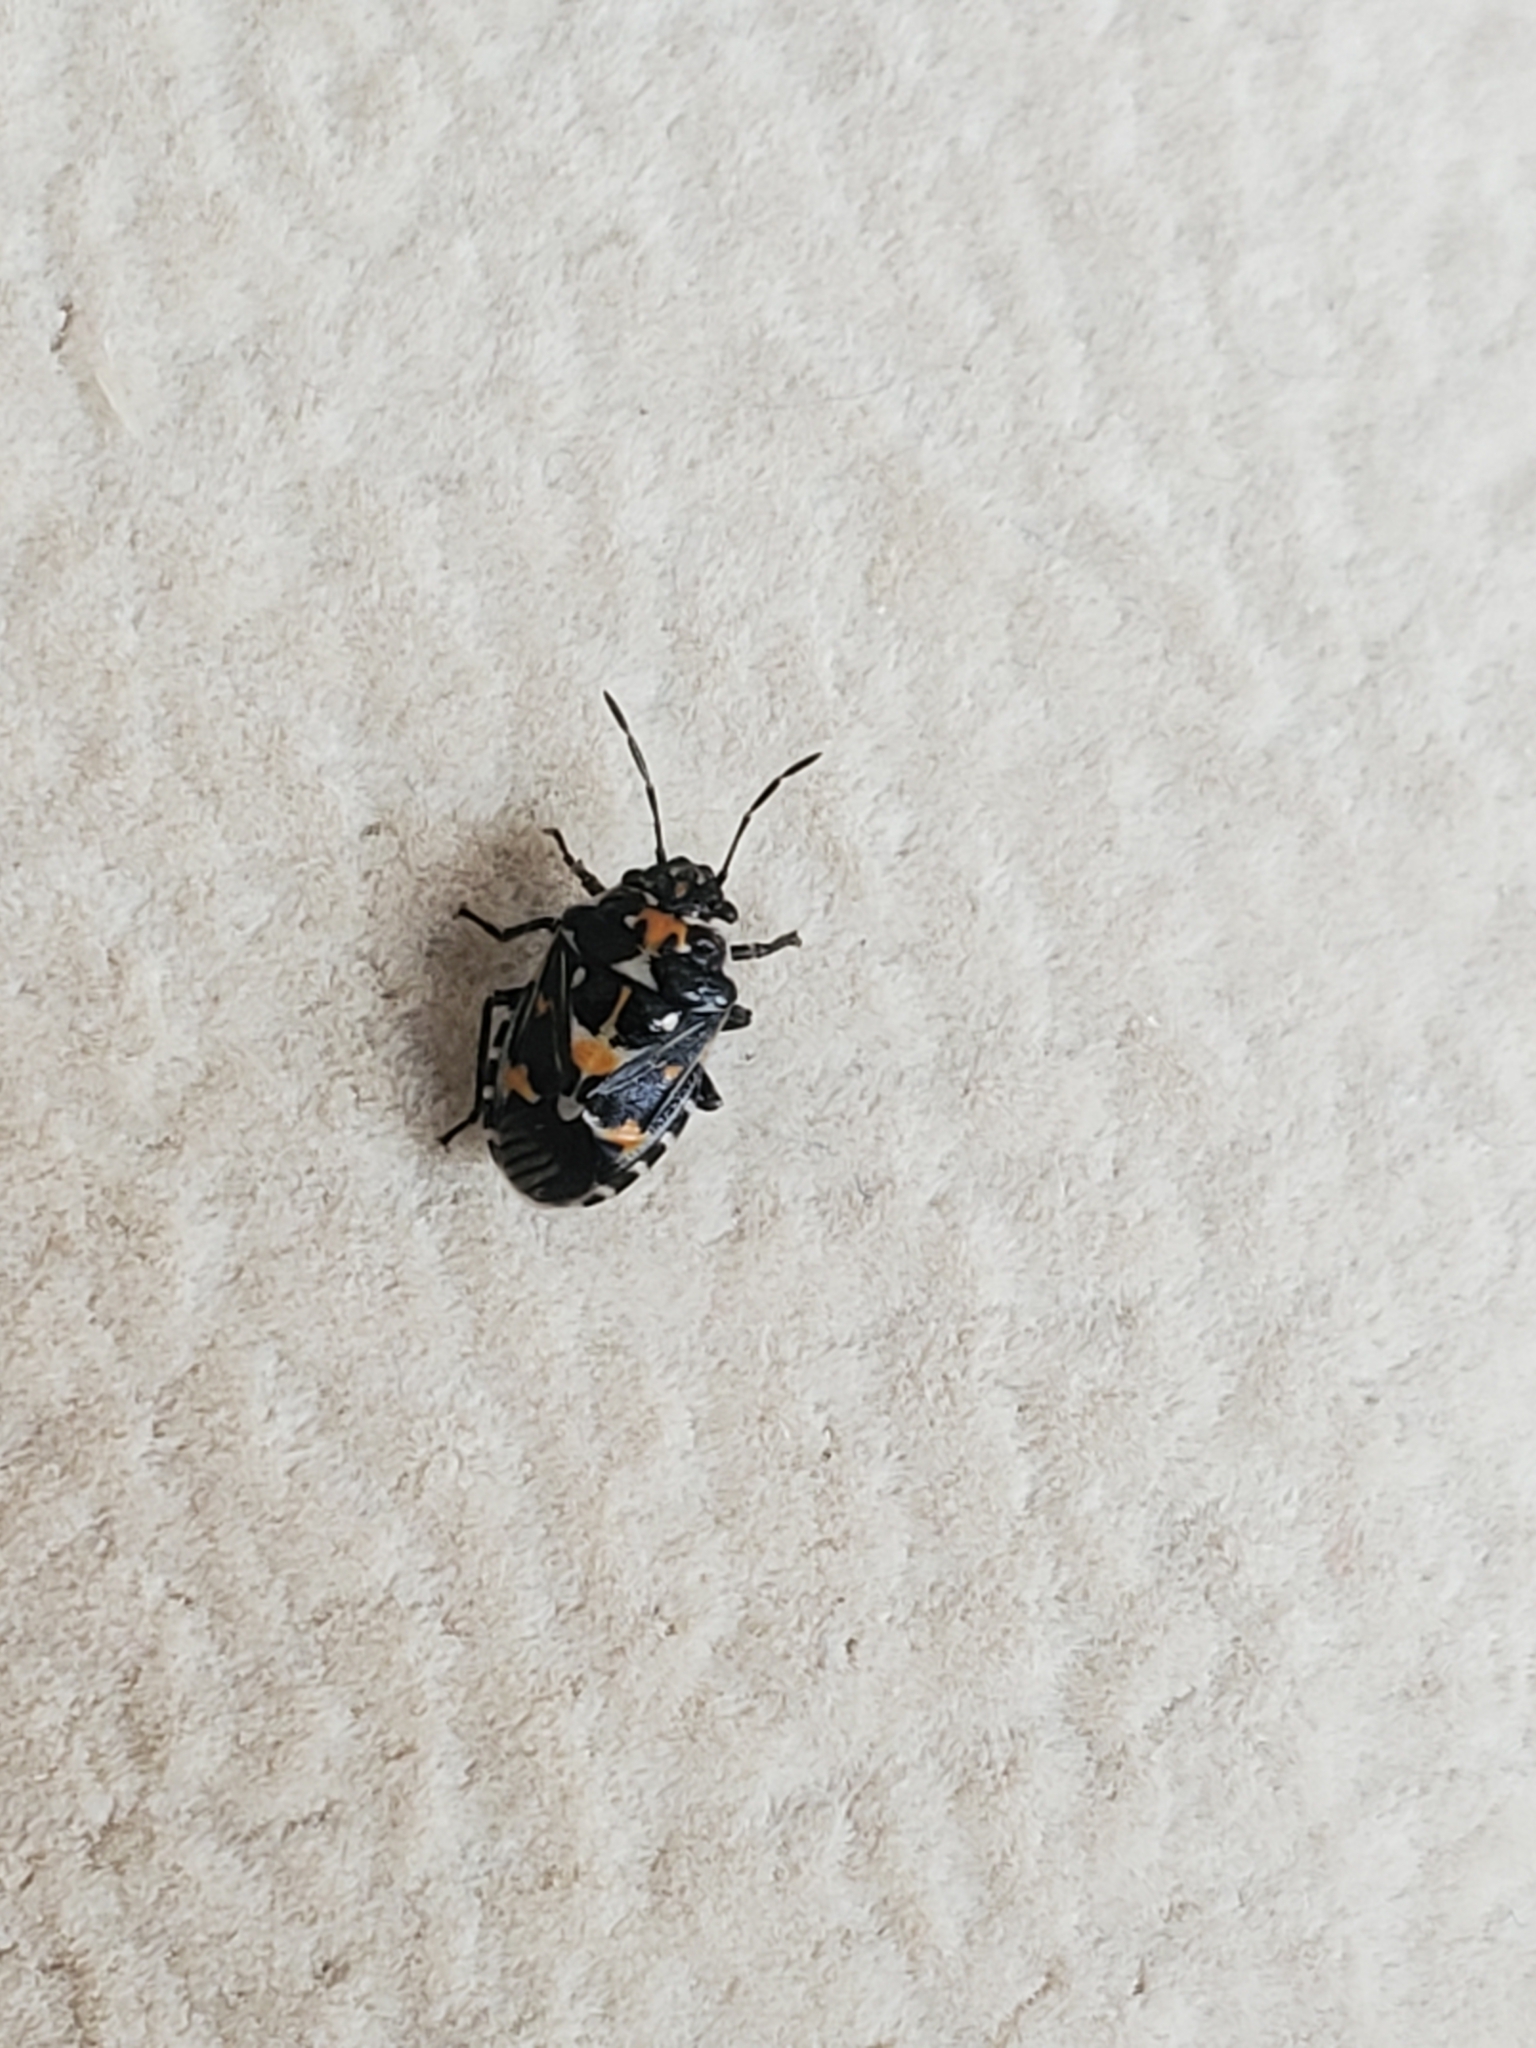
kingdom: Animalia
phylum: Arthropoda
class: Insecta
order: Hemiptera
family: Pentatomidae
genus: Stenozygum
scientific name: Stenozygum coloratum
